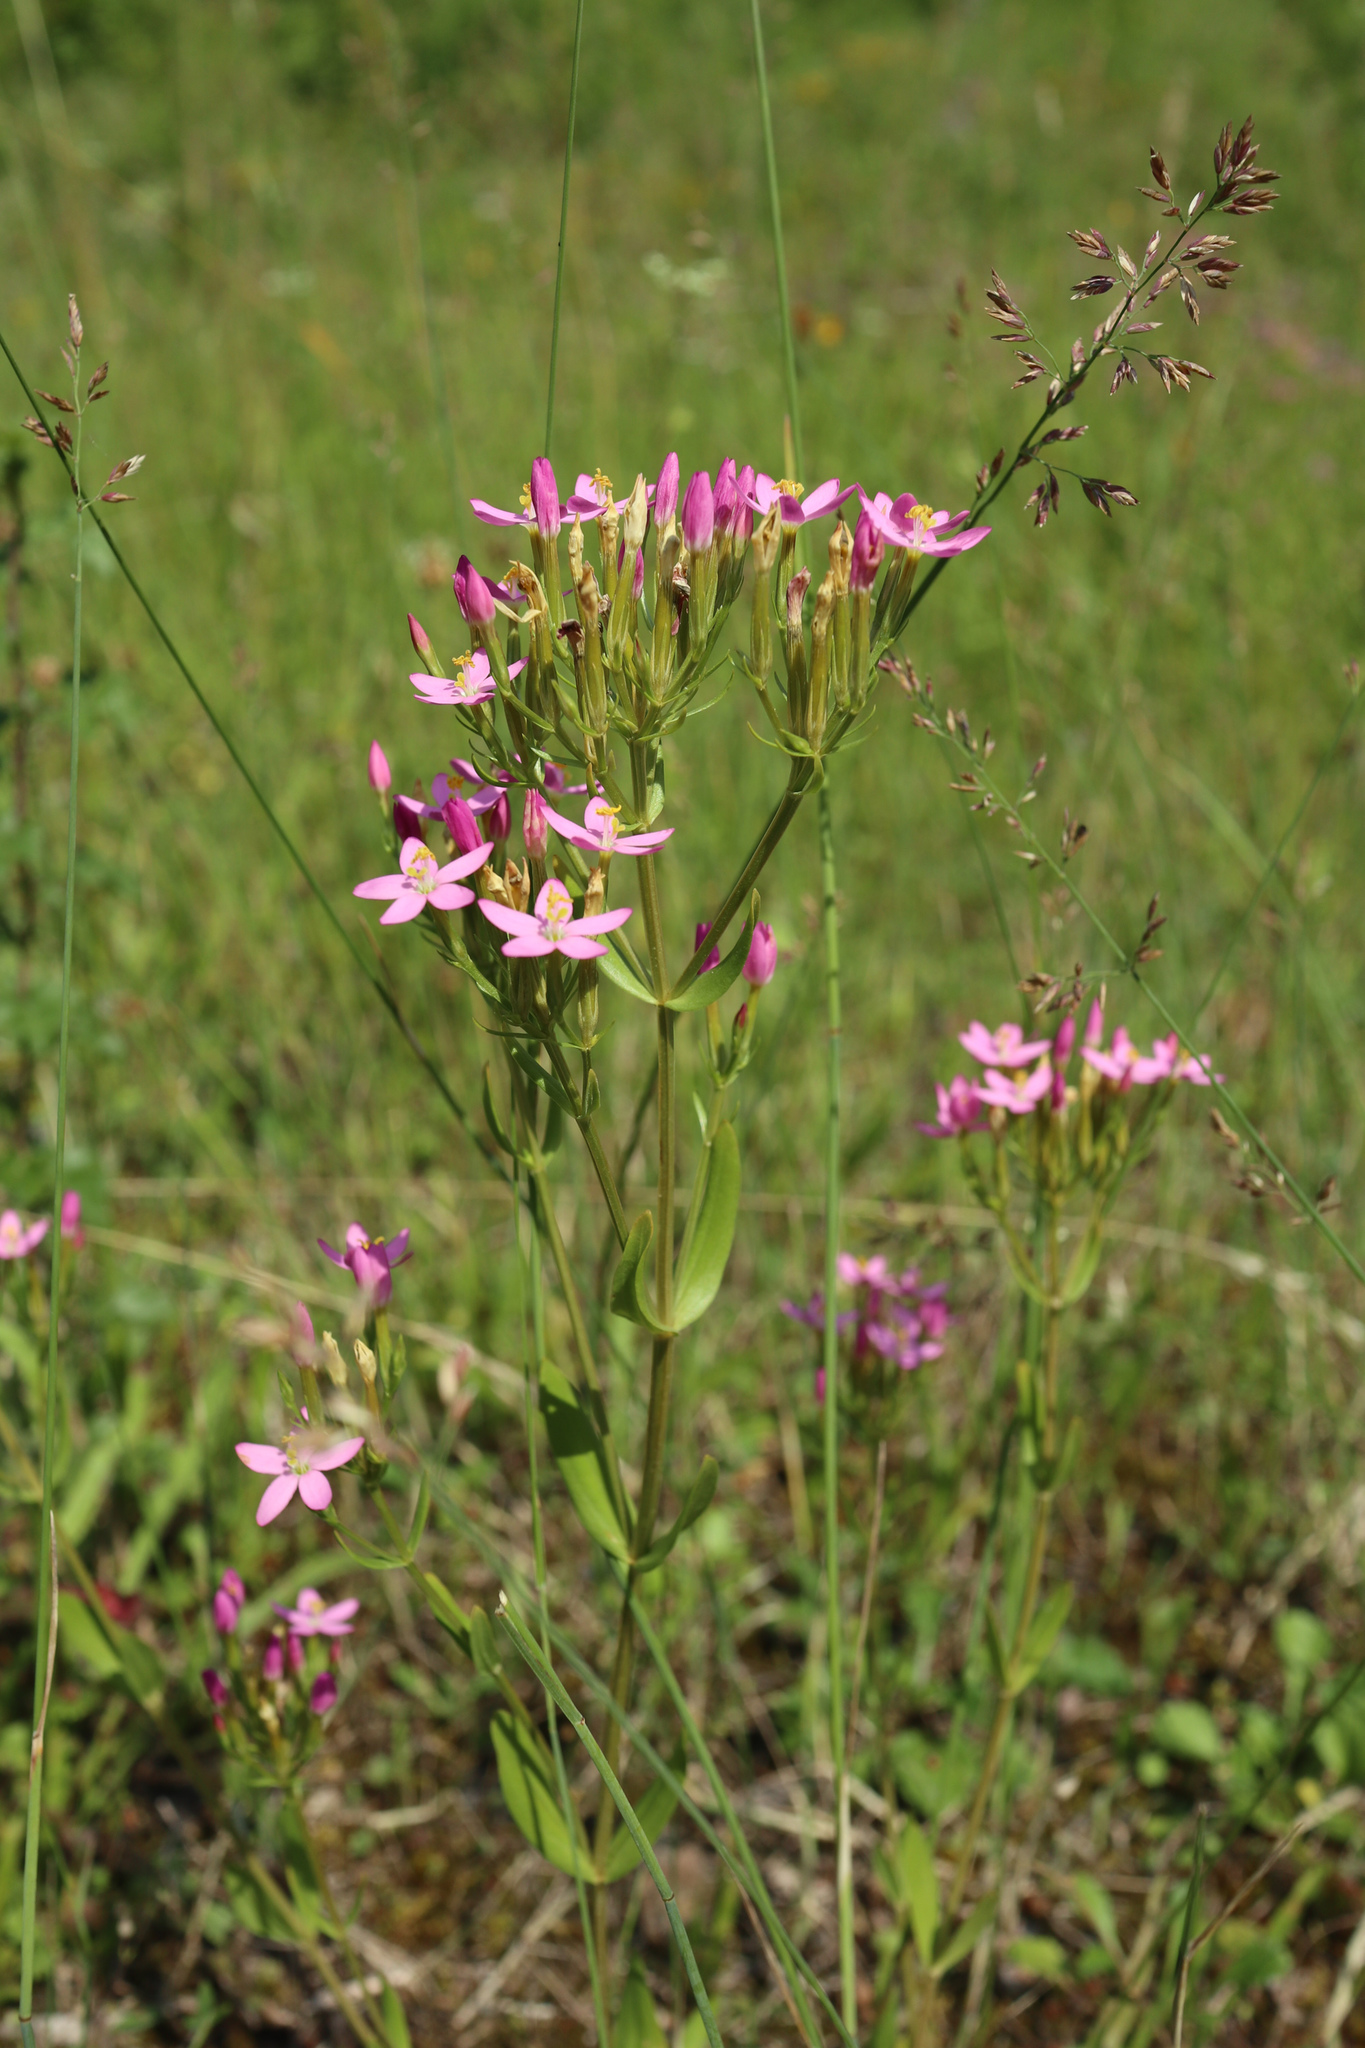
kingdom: Plantae
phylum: Tracheophyta
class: Magnoliopsida
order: Gentianales
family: Gentianaceae
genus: Centaurium
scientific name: Centaurium erythraea
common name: Common centaury
